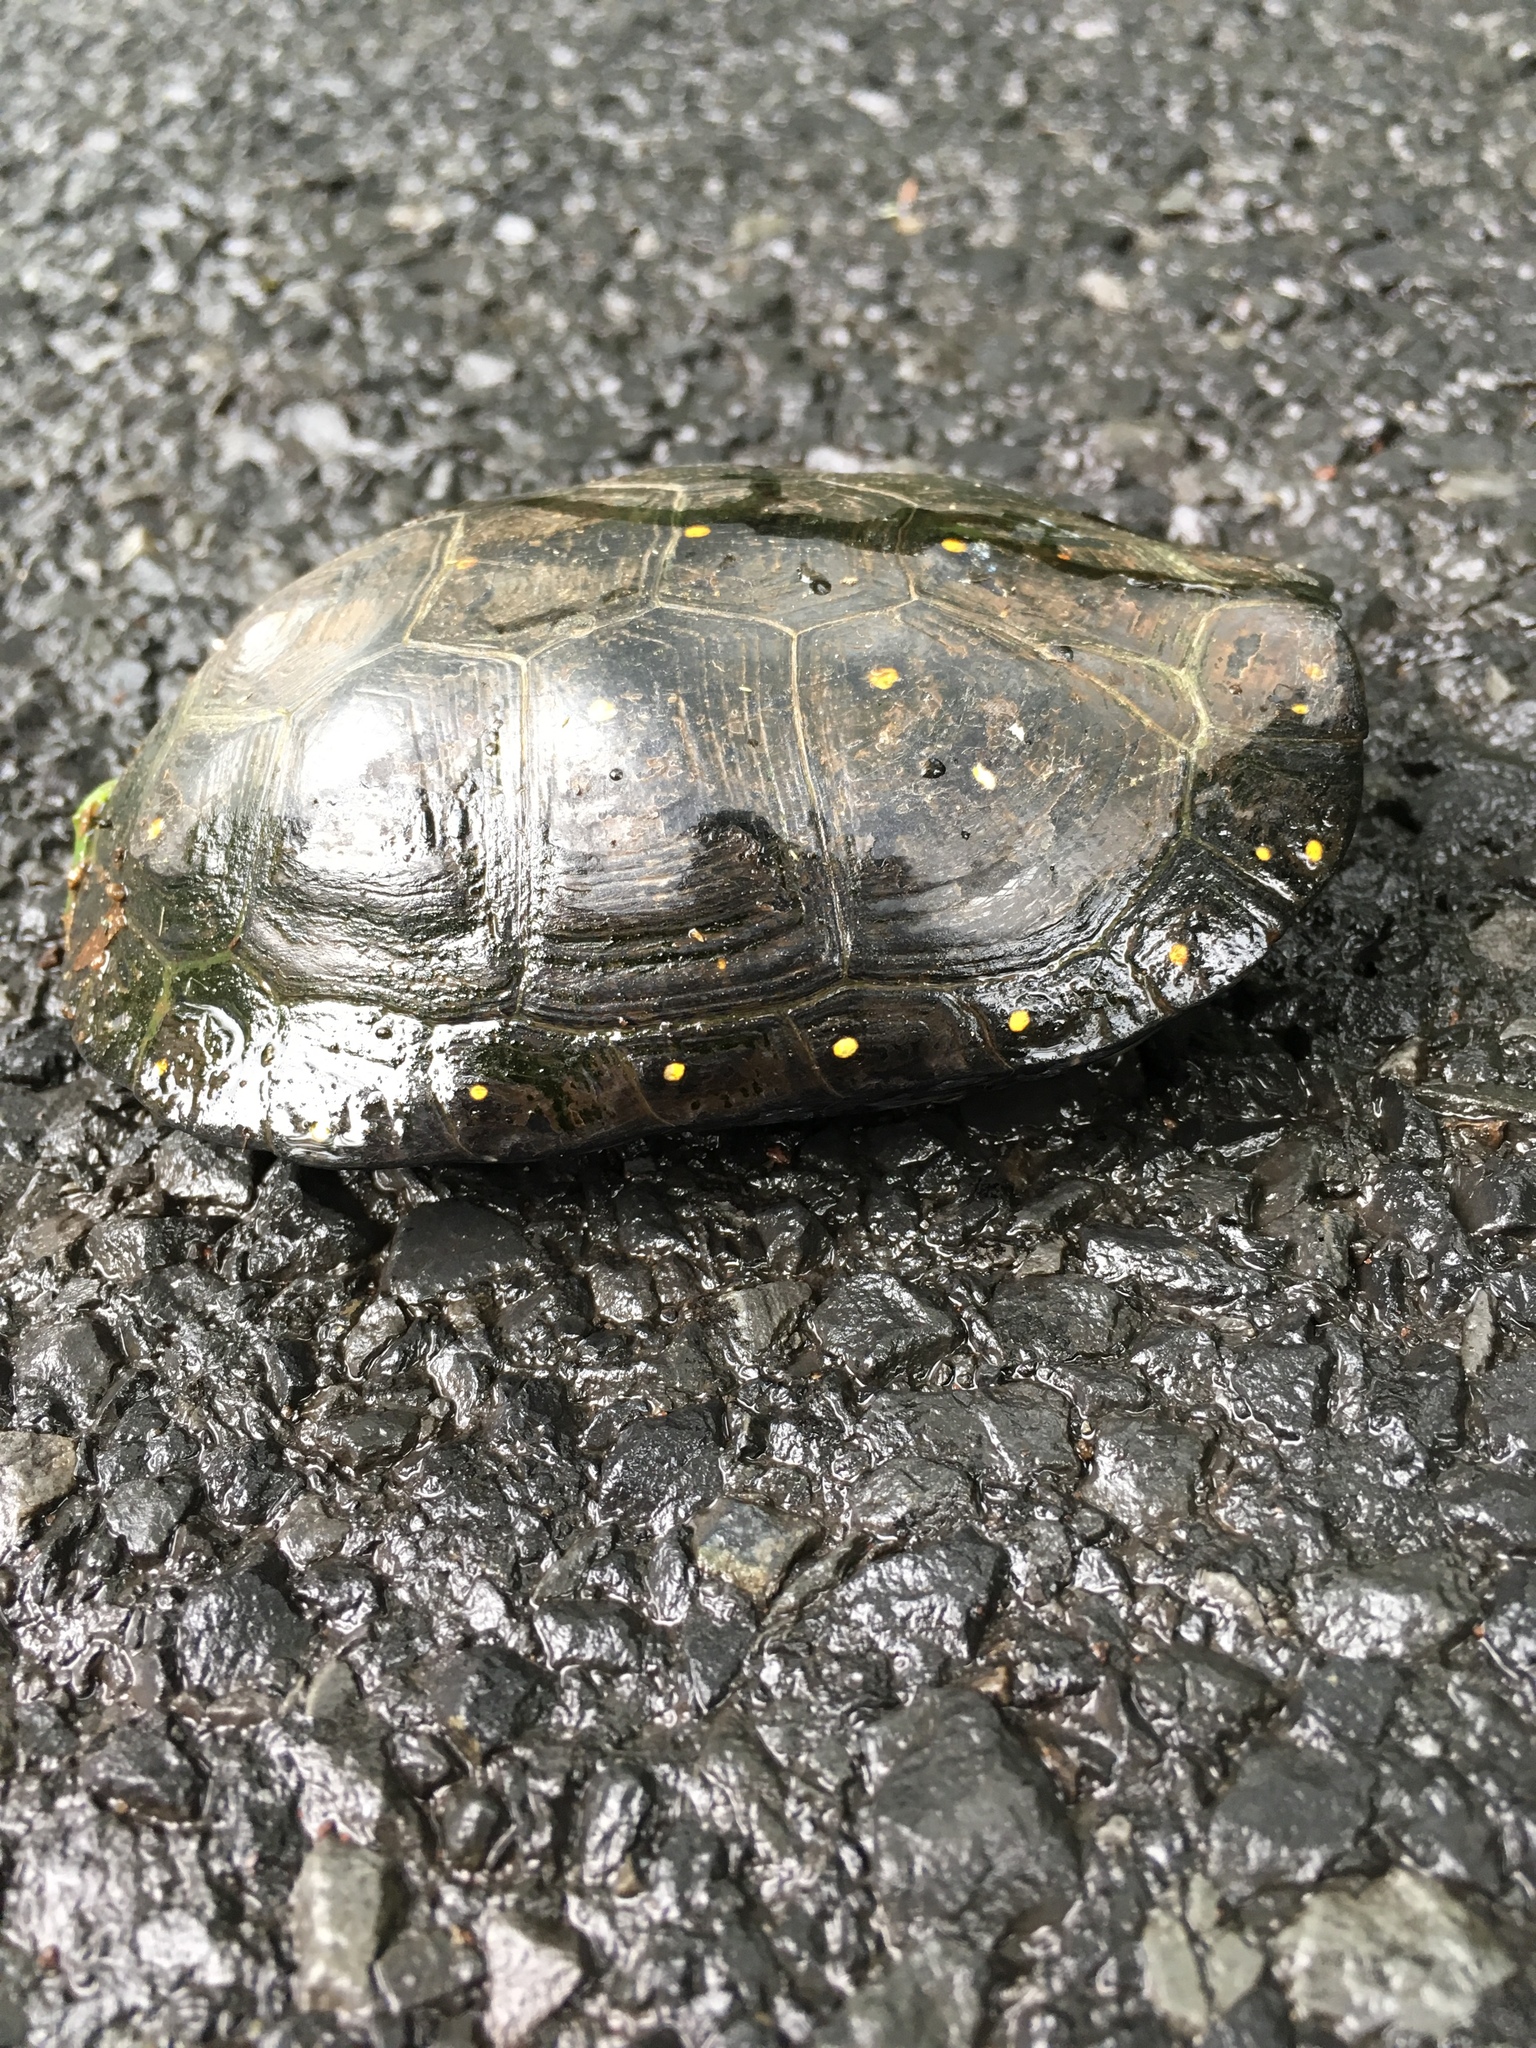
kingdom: Animalia
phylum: Chordata
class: Testudines
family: Emydidae
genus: Clemmys
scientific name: Clemmys guttata
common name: Spotted turtle
